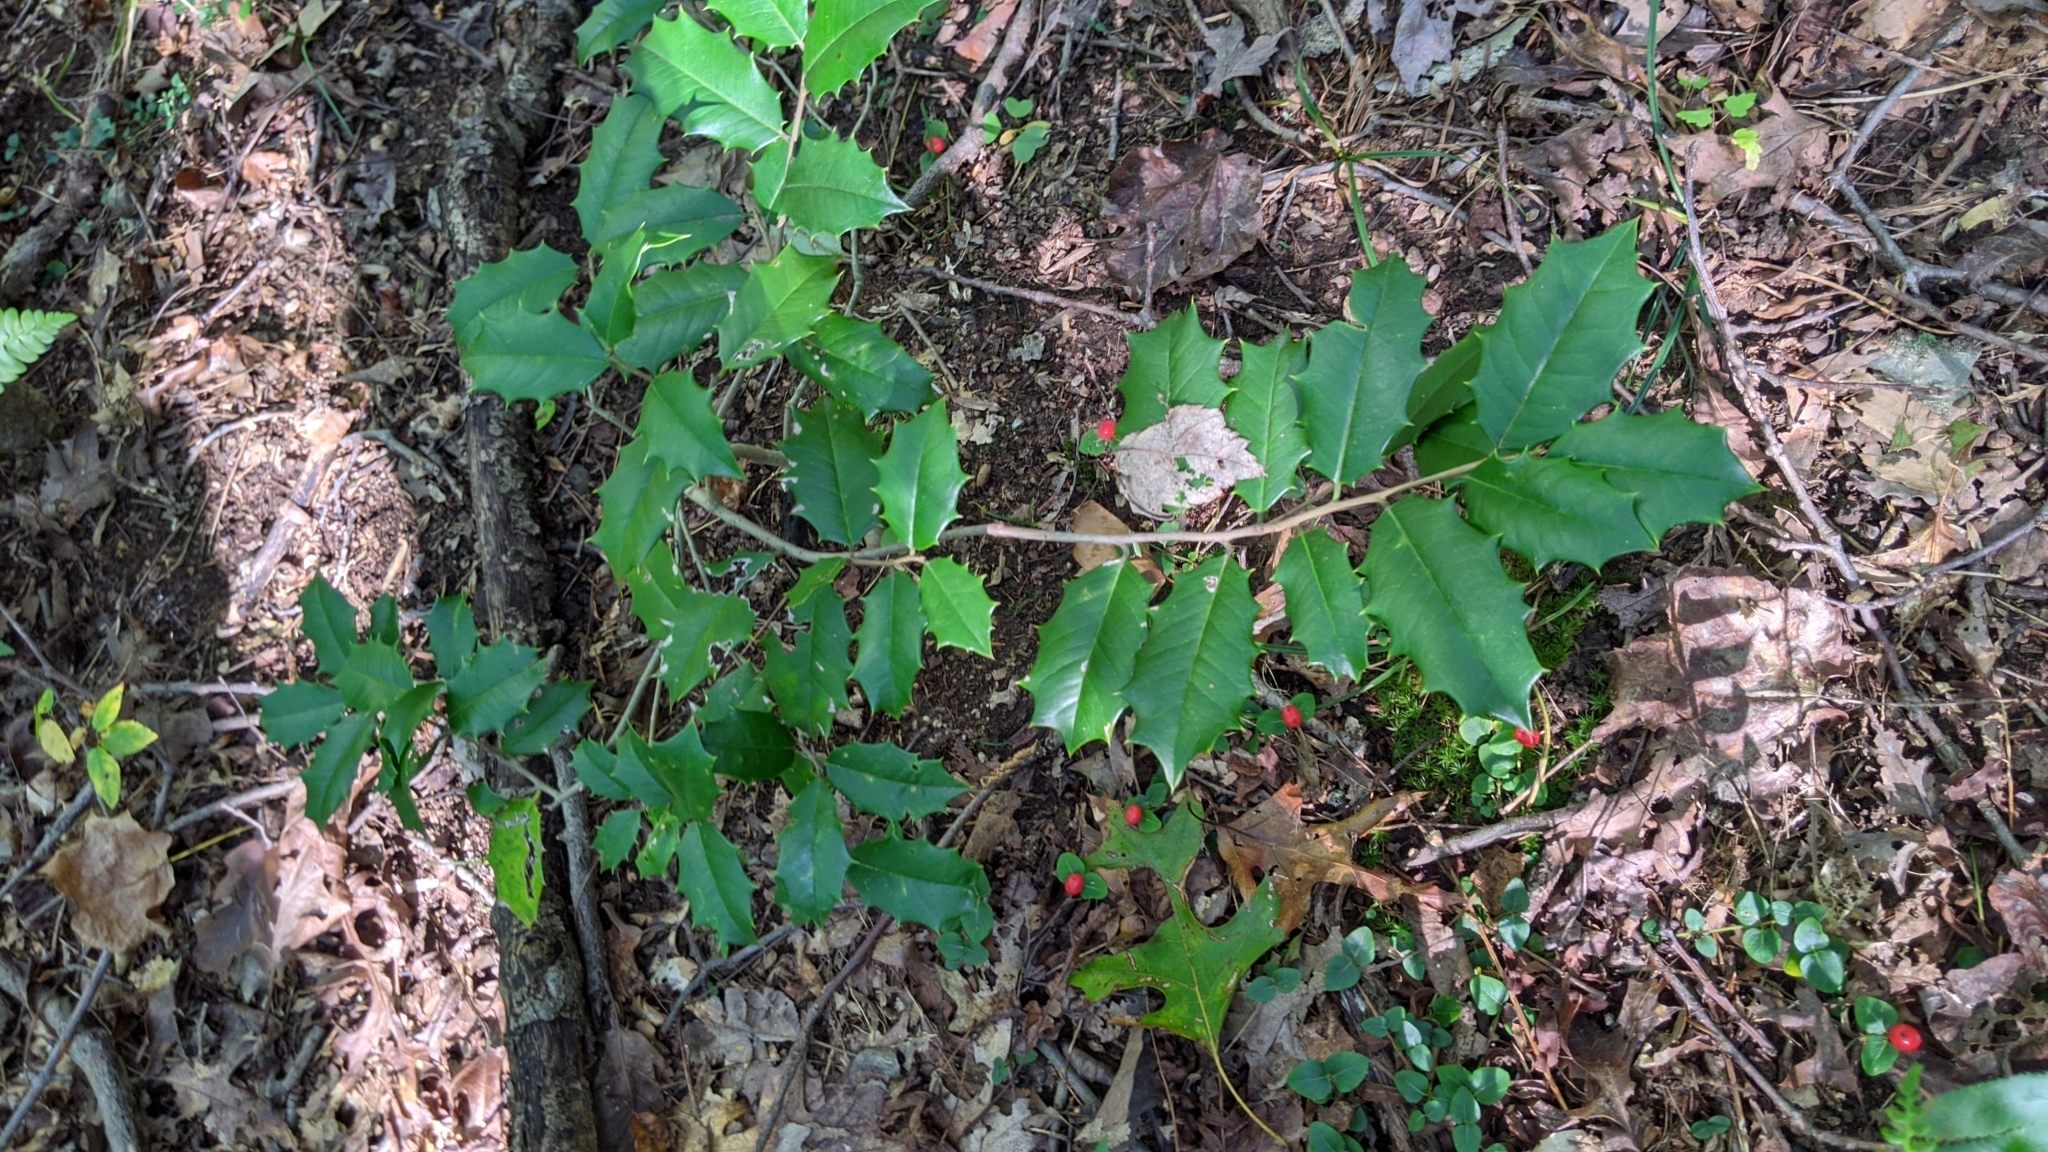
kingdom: Plantae
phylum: Tracheophyta
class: Magnoliopsida
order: Aquifoliales
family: Aquifoliaceae
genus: Ilex
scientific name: Ilex opaca
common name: American holly
